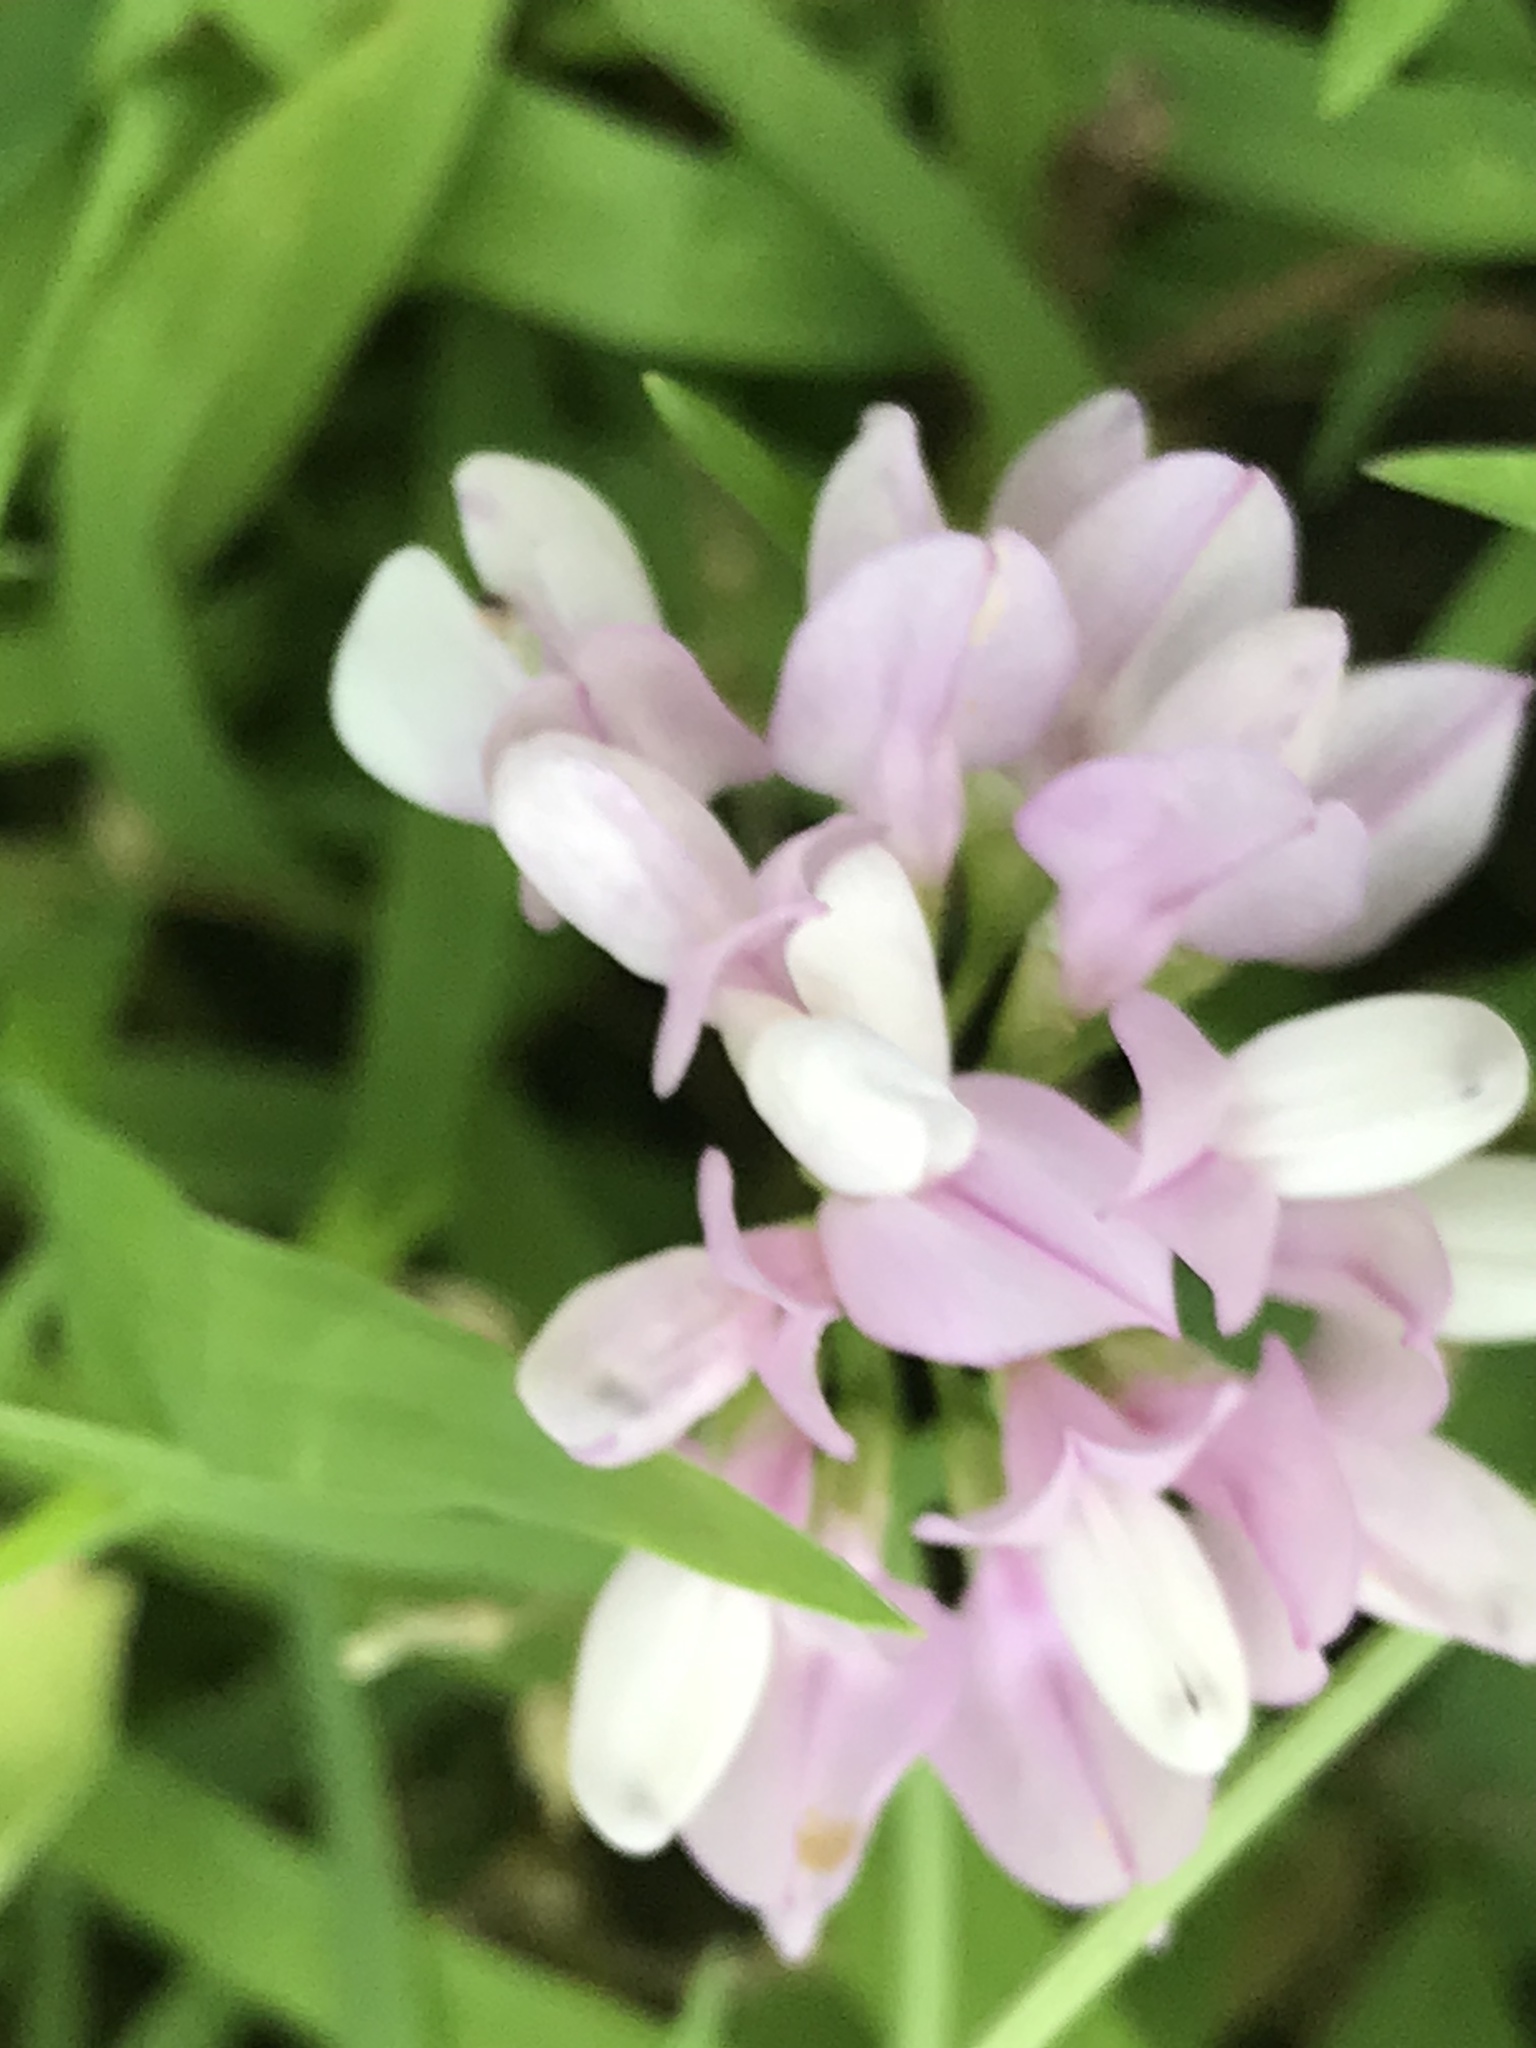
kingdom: Plantae
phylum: Tracheophyta
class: Magnoliopsida
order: Fabales
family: Fabaceae
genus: Coronilla
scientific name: Coronilla varia
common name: Crownvetch
